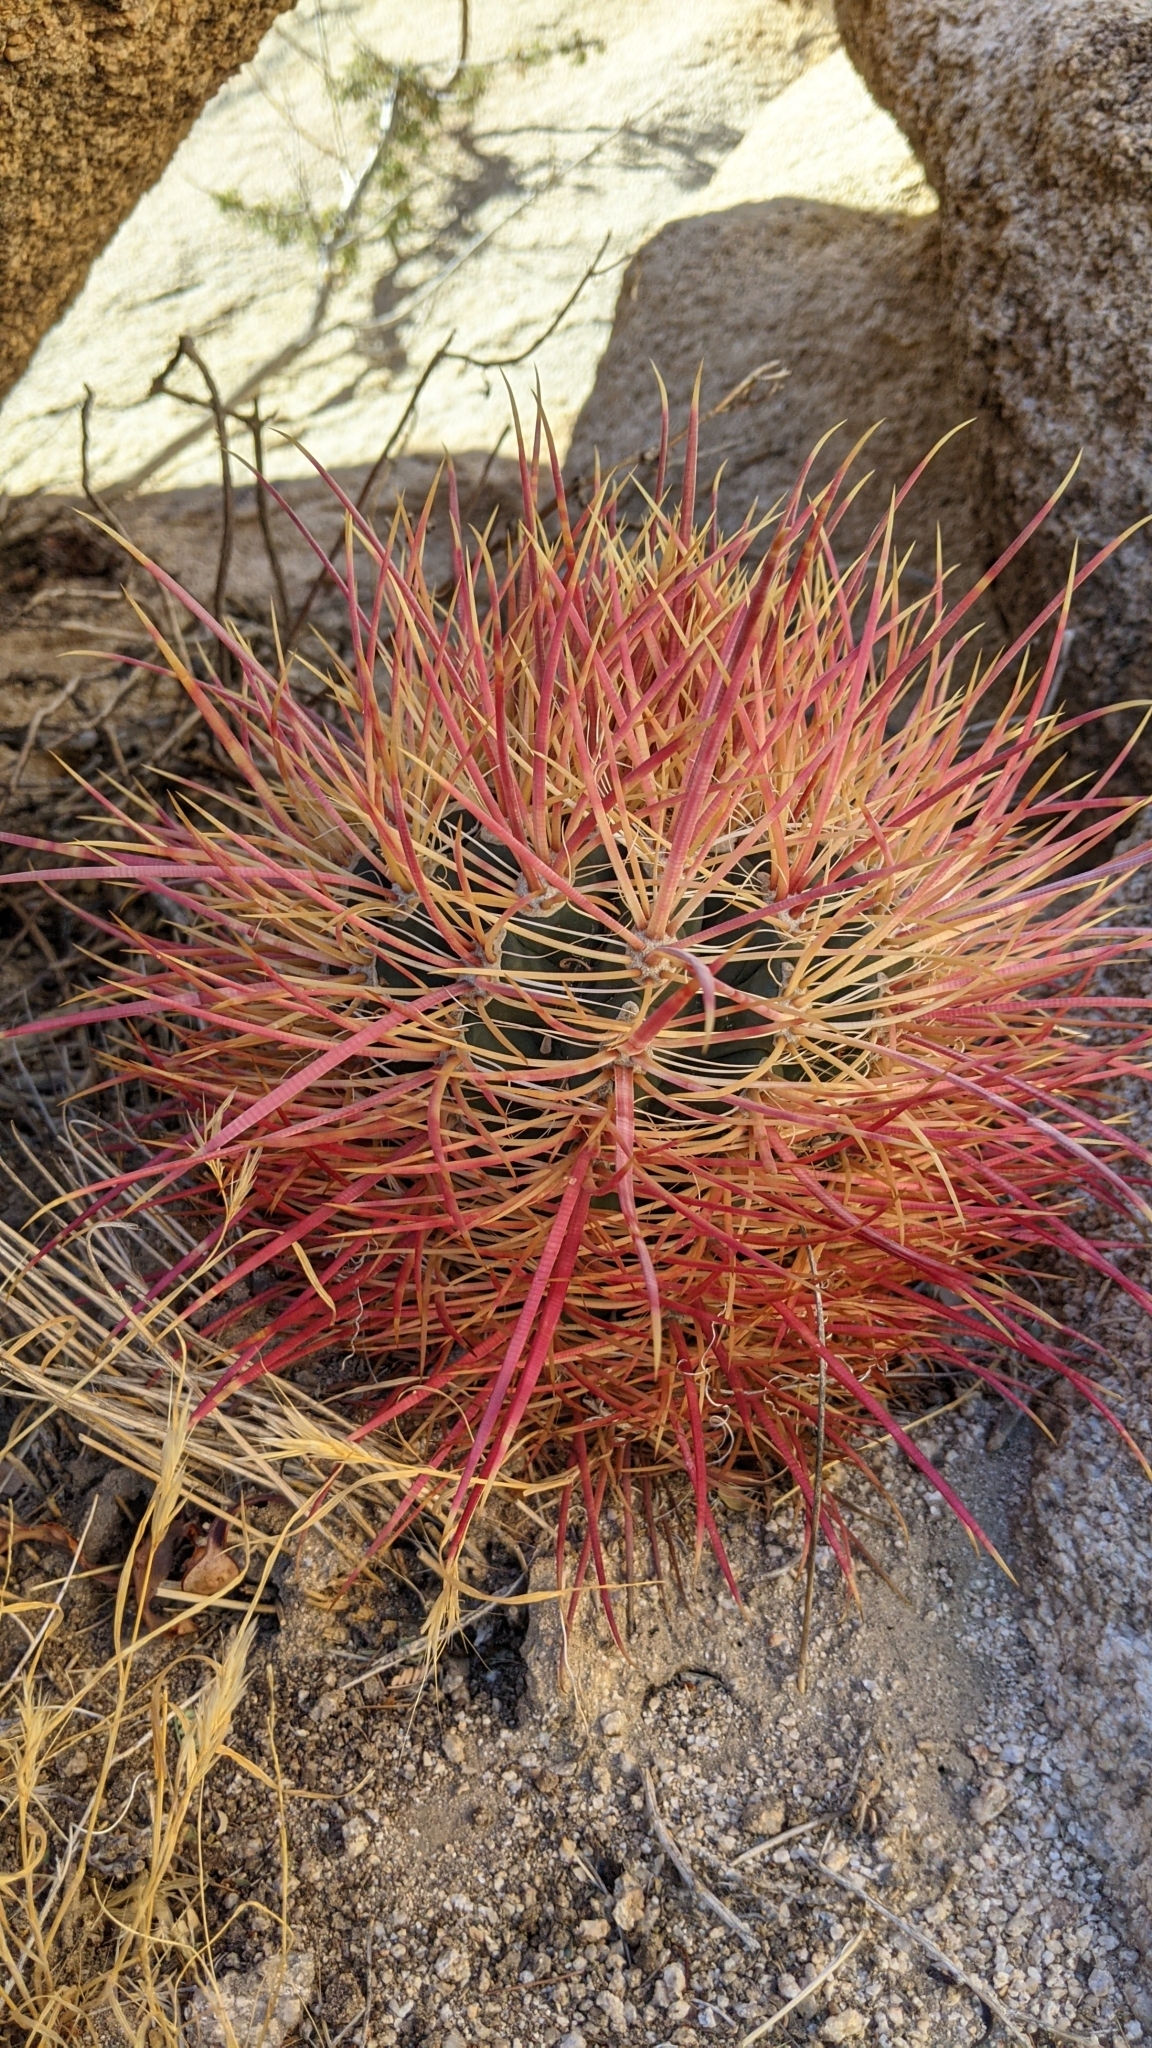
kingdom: Plantae
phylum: Tracheophyta
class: Magnoliopsida
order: Caryophyllales
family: Cactaceae
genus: Ferocactus
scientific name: Ferocactus cylindraceus
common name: California barrel cactus
